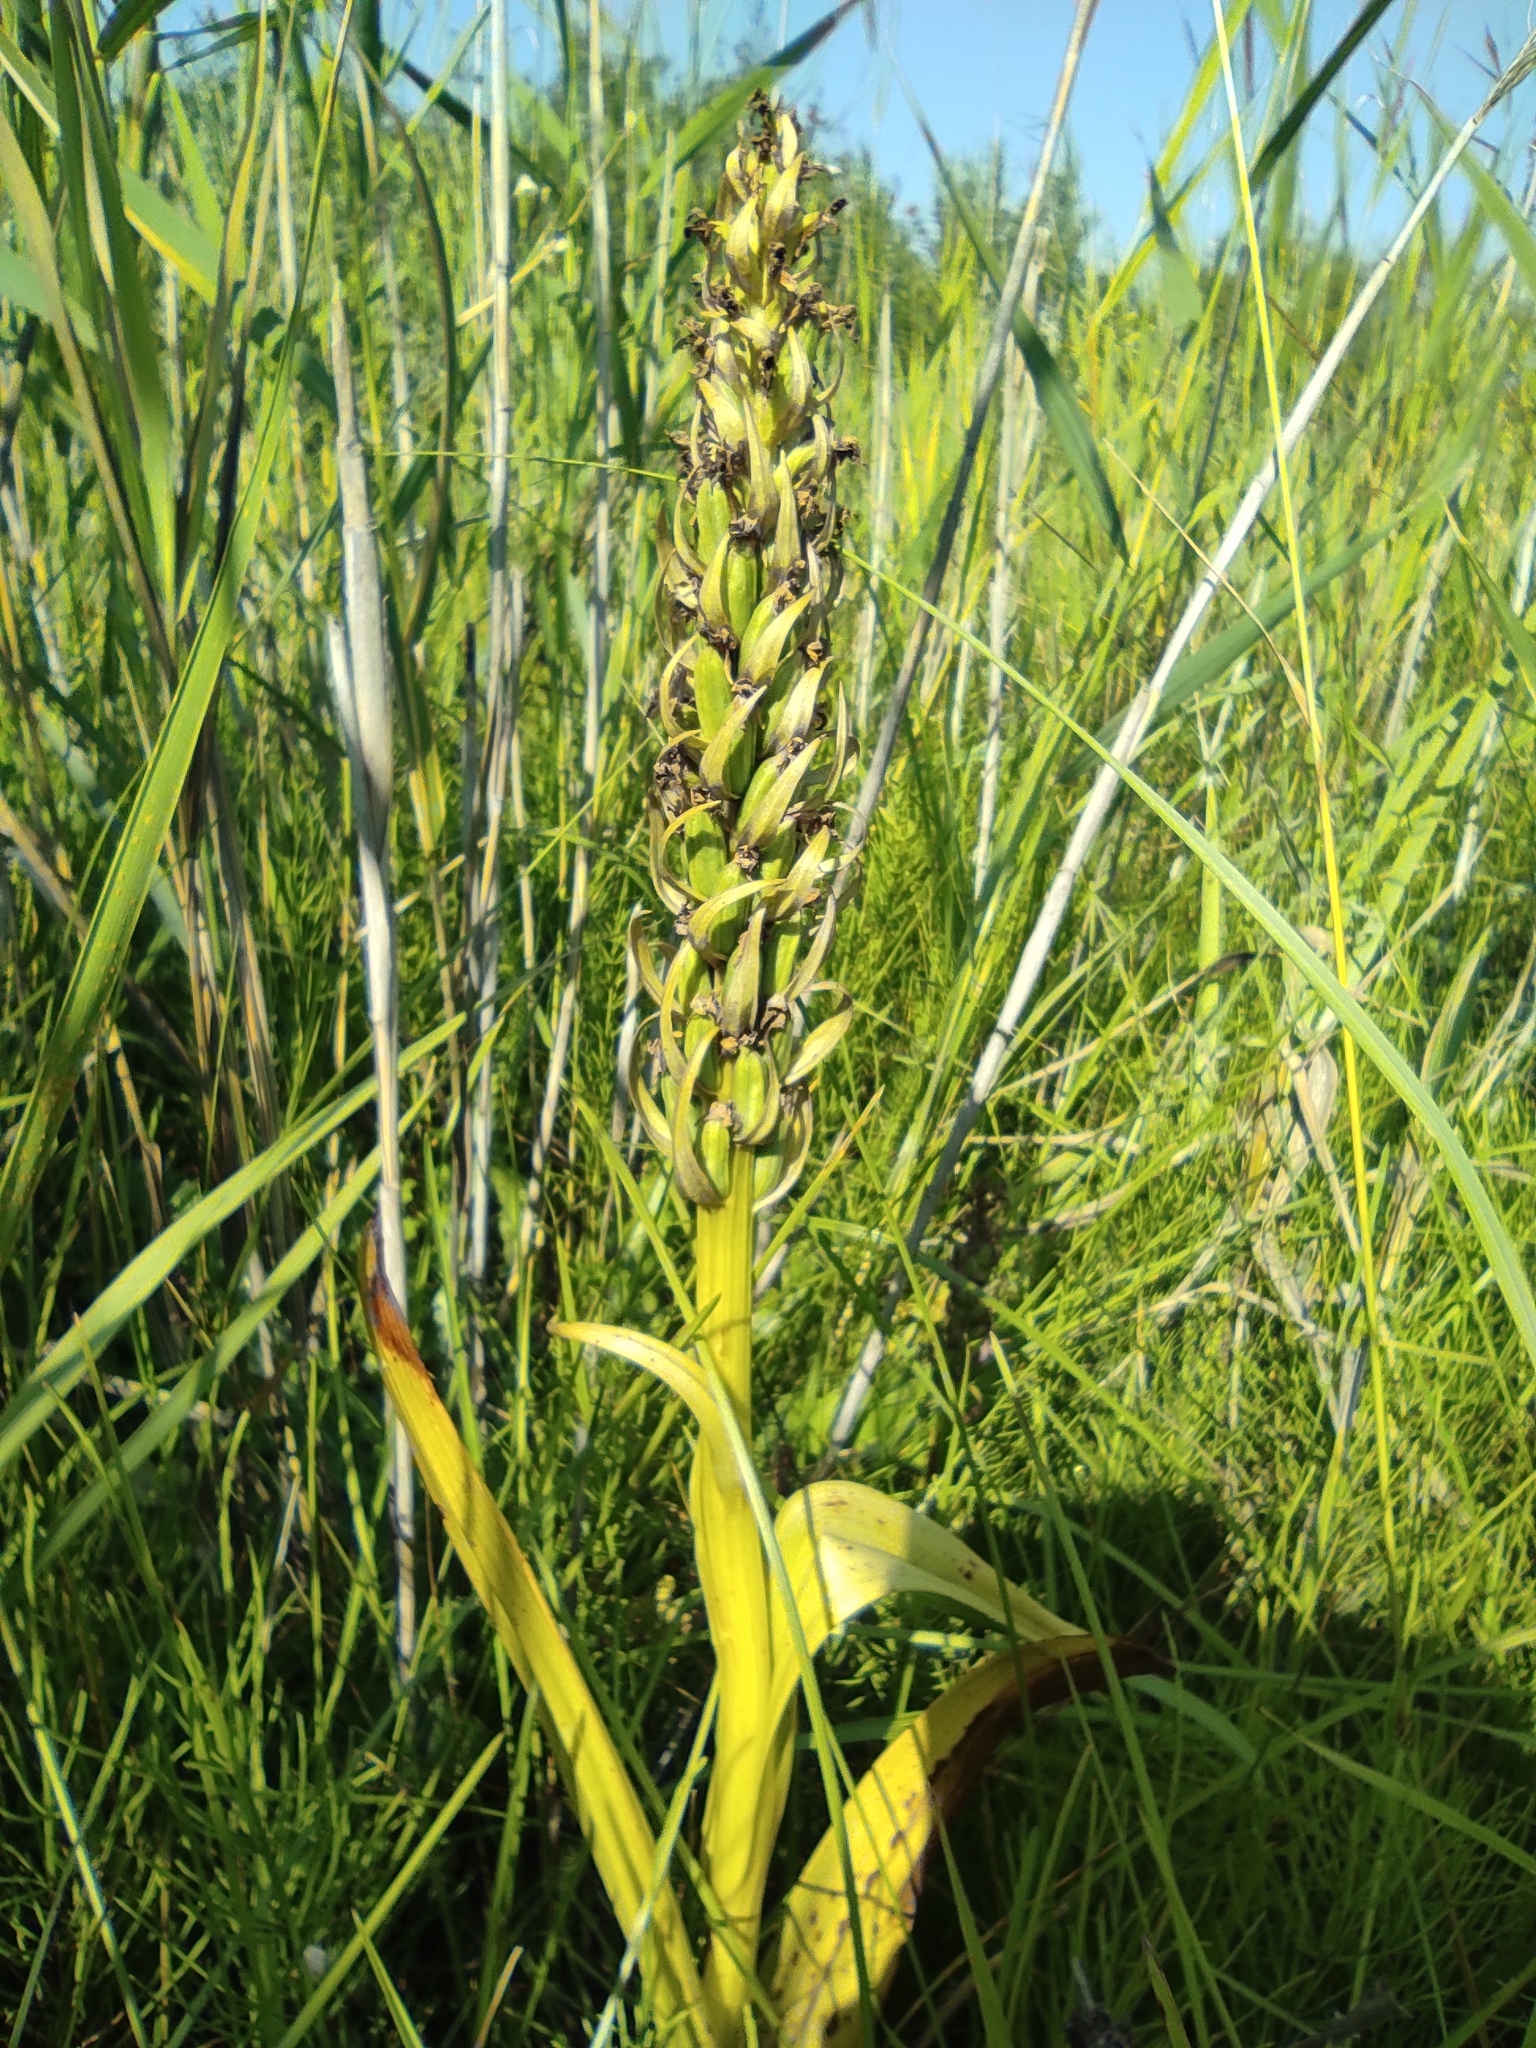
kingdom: Plantae
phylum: Tracheophyta
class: Liliopsida
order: Asparagales
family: Orchidaceae
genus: Dactylorhiza
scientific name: Dactylorhiza incarnata
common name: Early marsh-orchid
